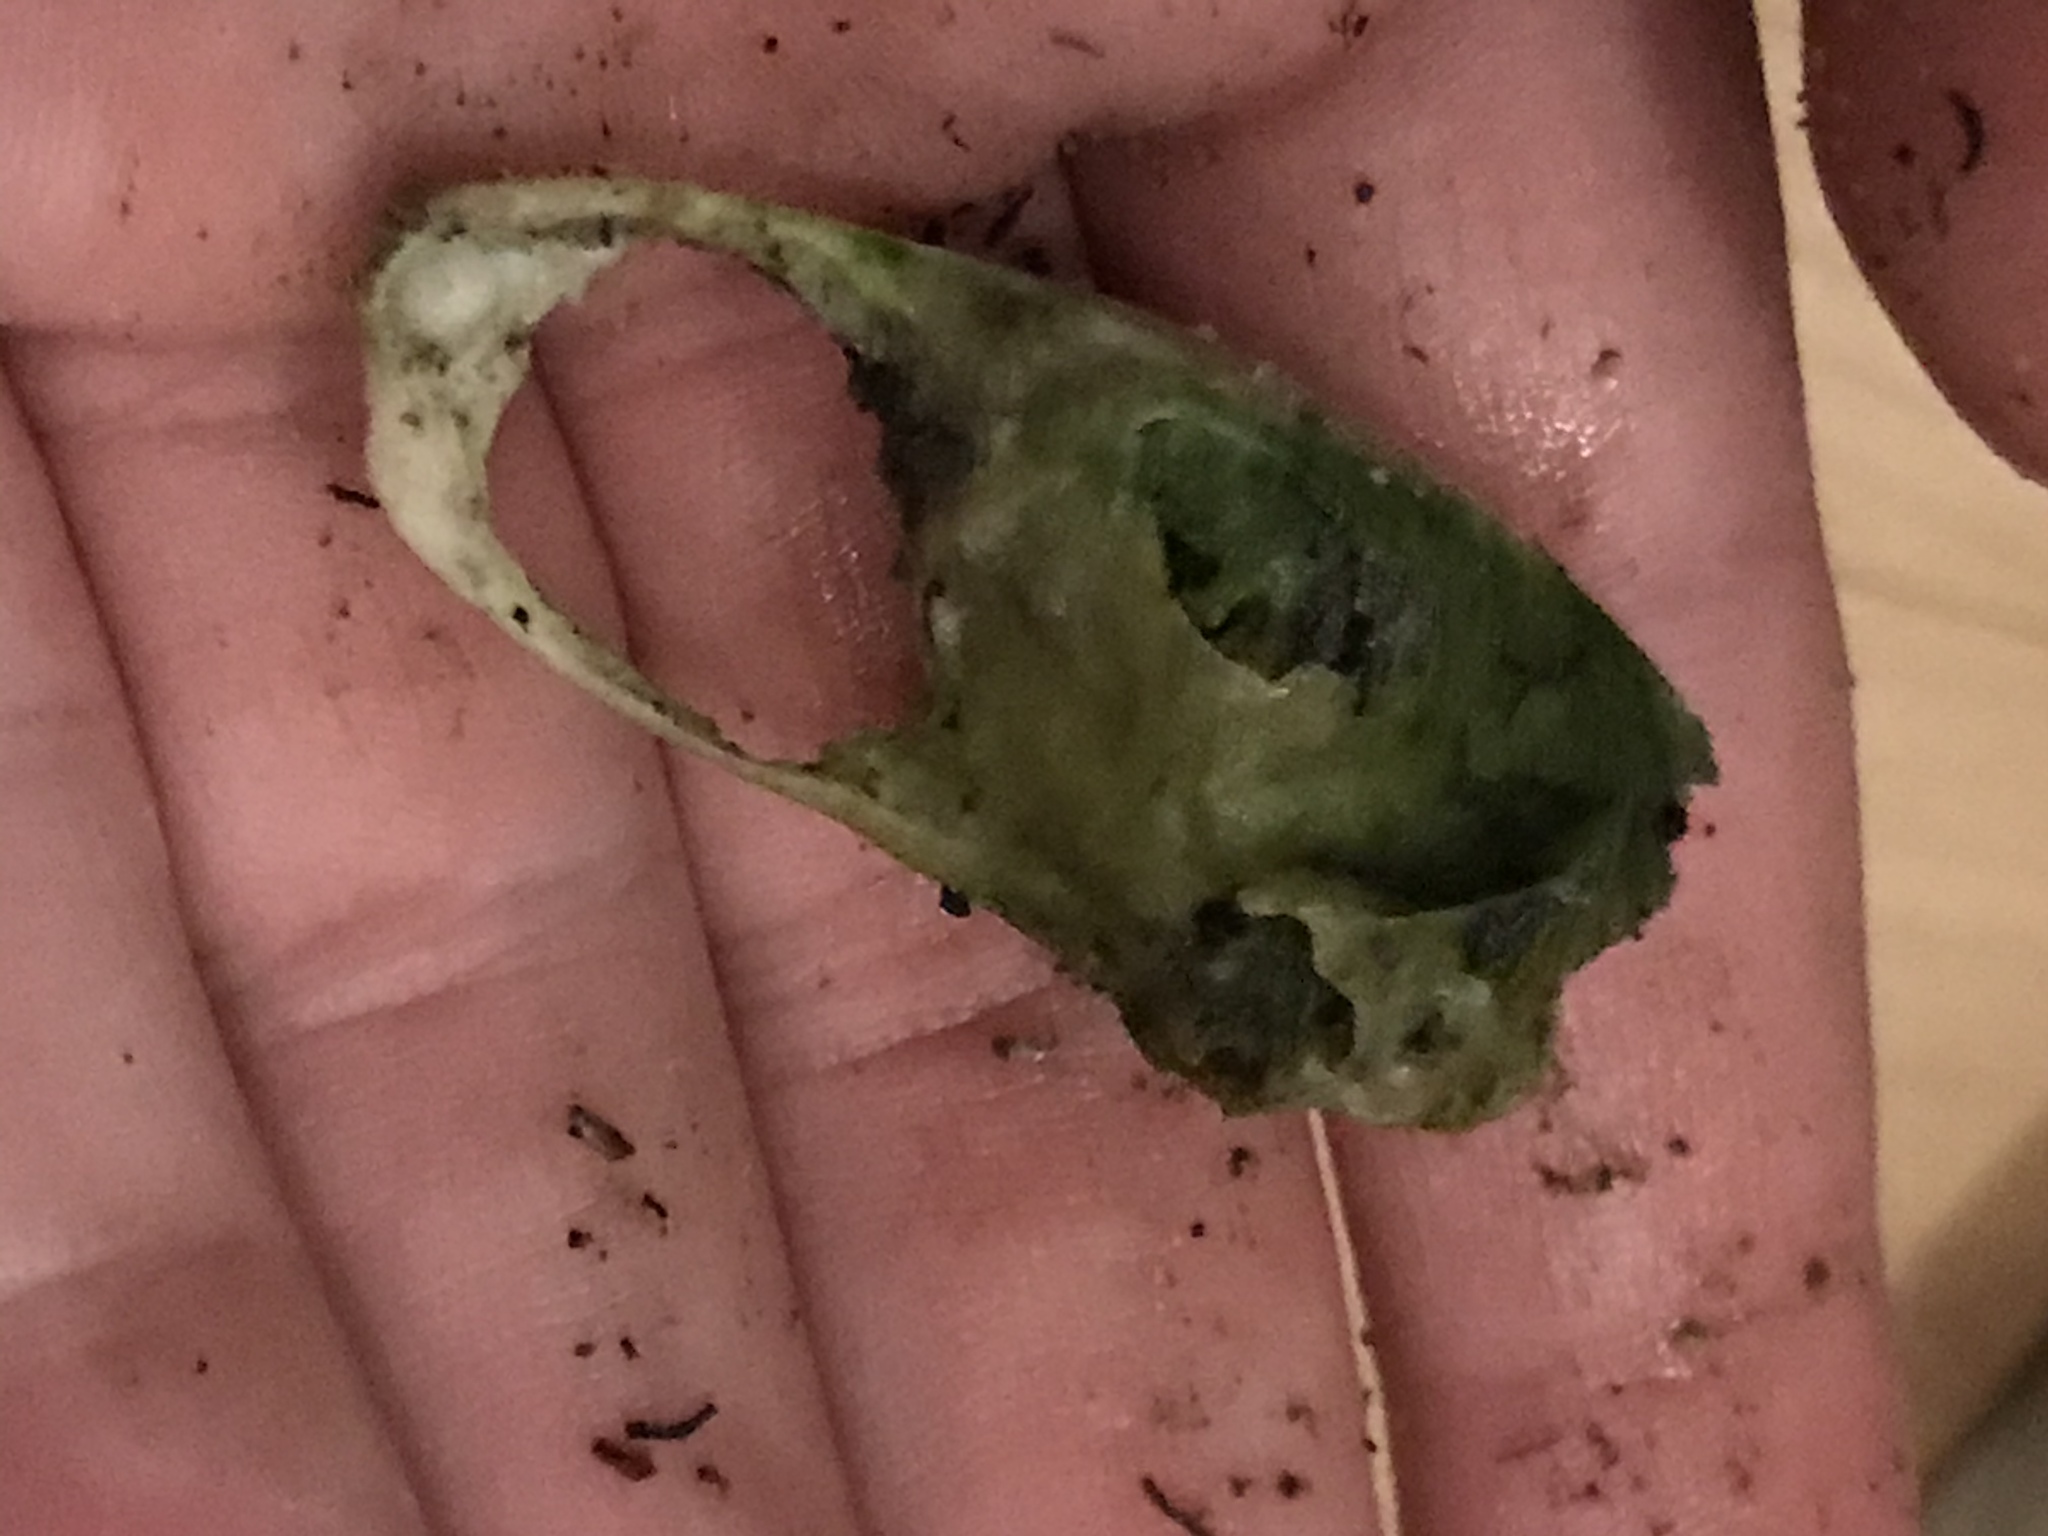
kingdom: Animalia
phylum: Chordata
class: Aves
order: Suliformes
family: Phalacrocoracidae
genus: Phalacrocorax
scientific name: Phalacrocorax pelagicus
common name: Pelagic cormorant
